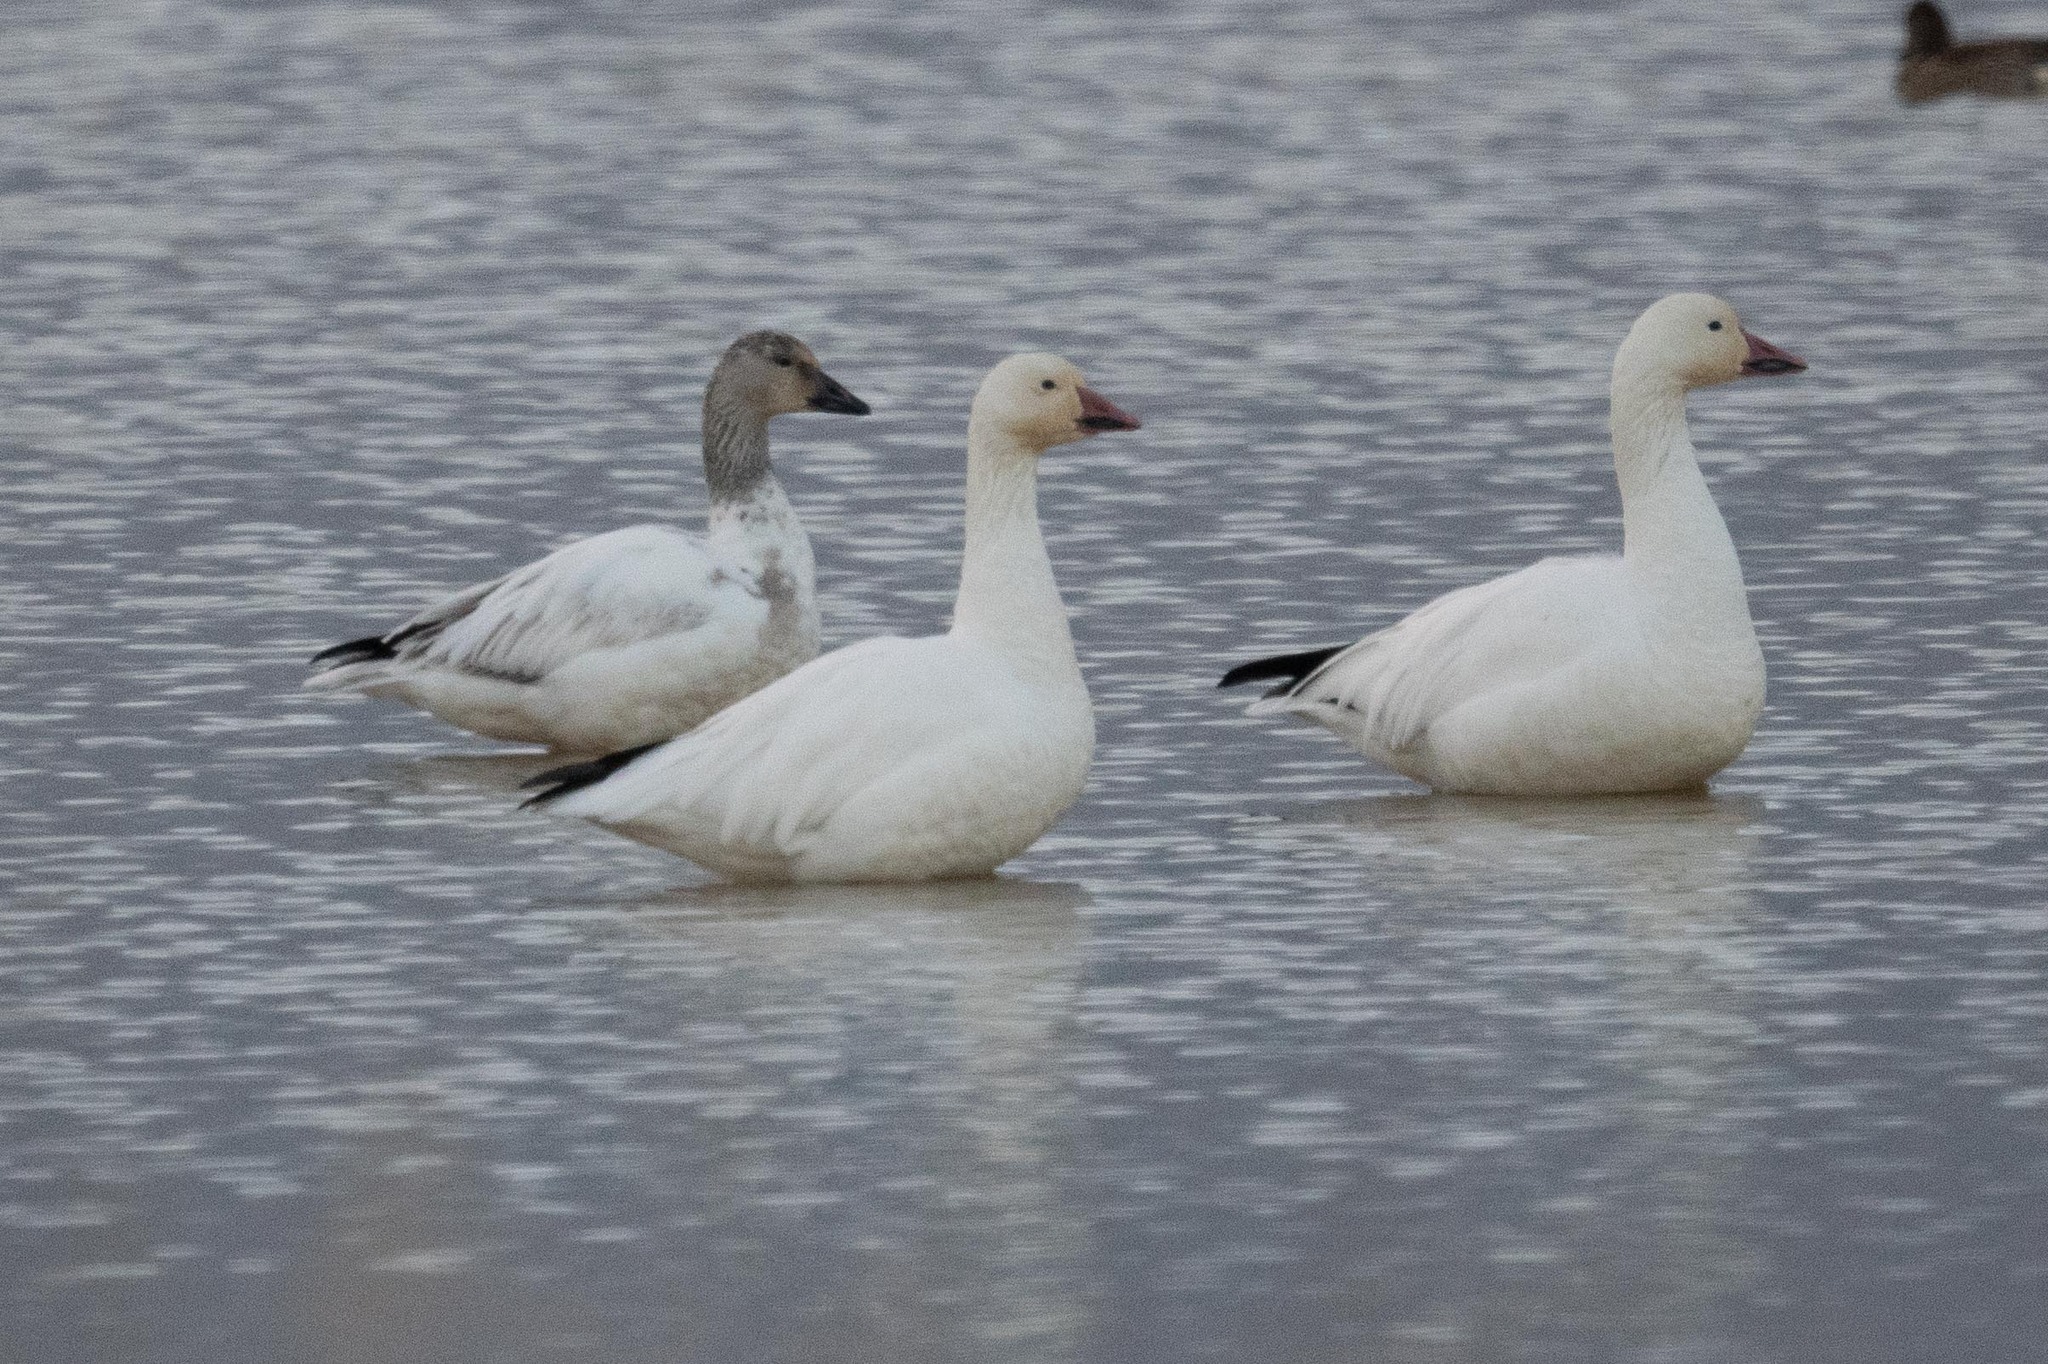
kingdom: Animalia
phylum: Chordata
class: Aves
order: Anseriformes
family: Anatidae
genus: Anser
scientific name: Anser caerulescens
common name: Snow goose
